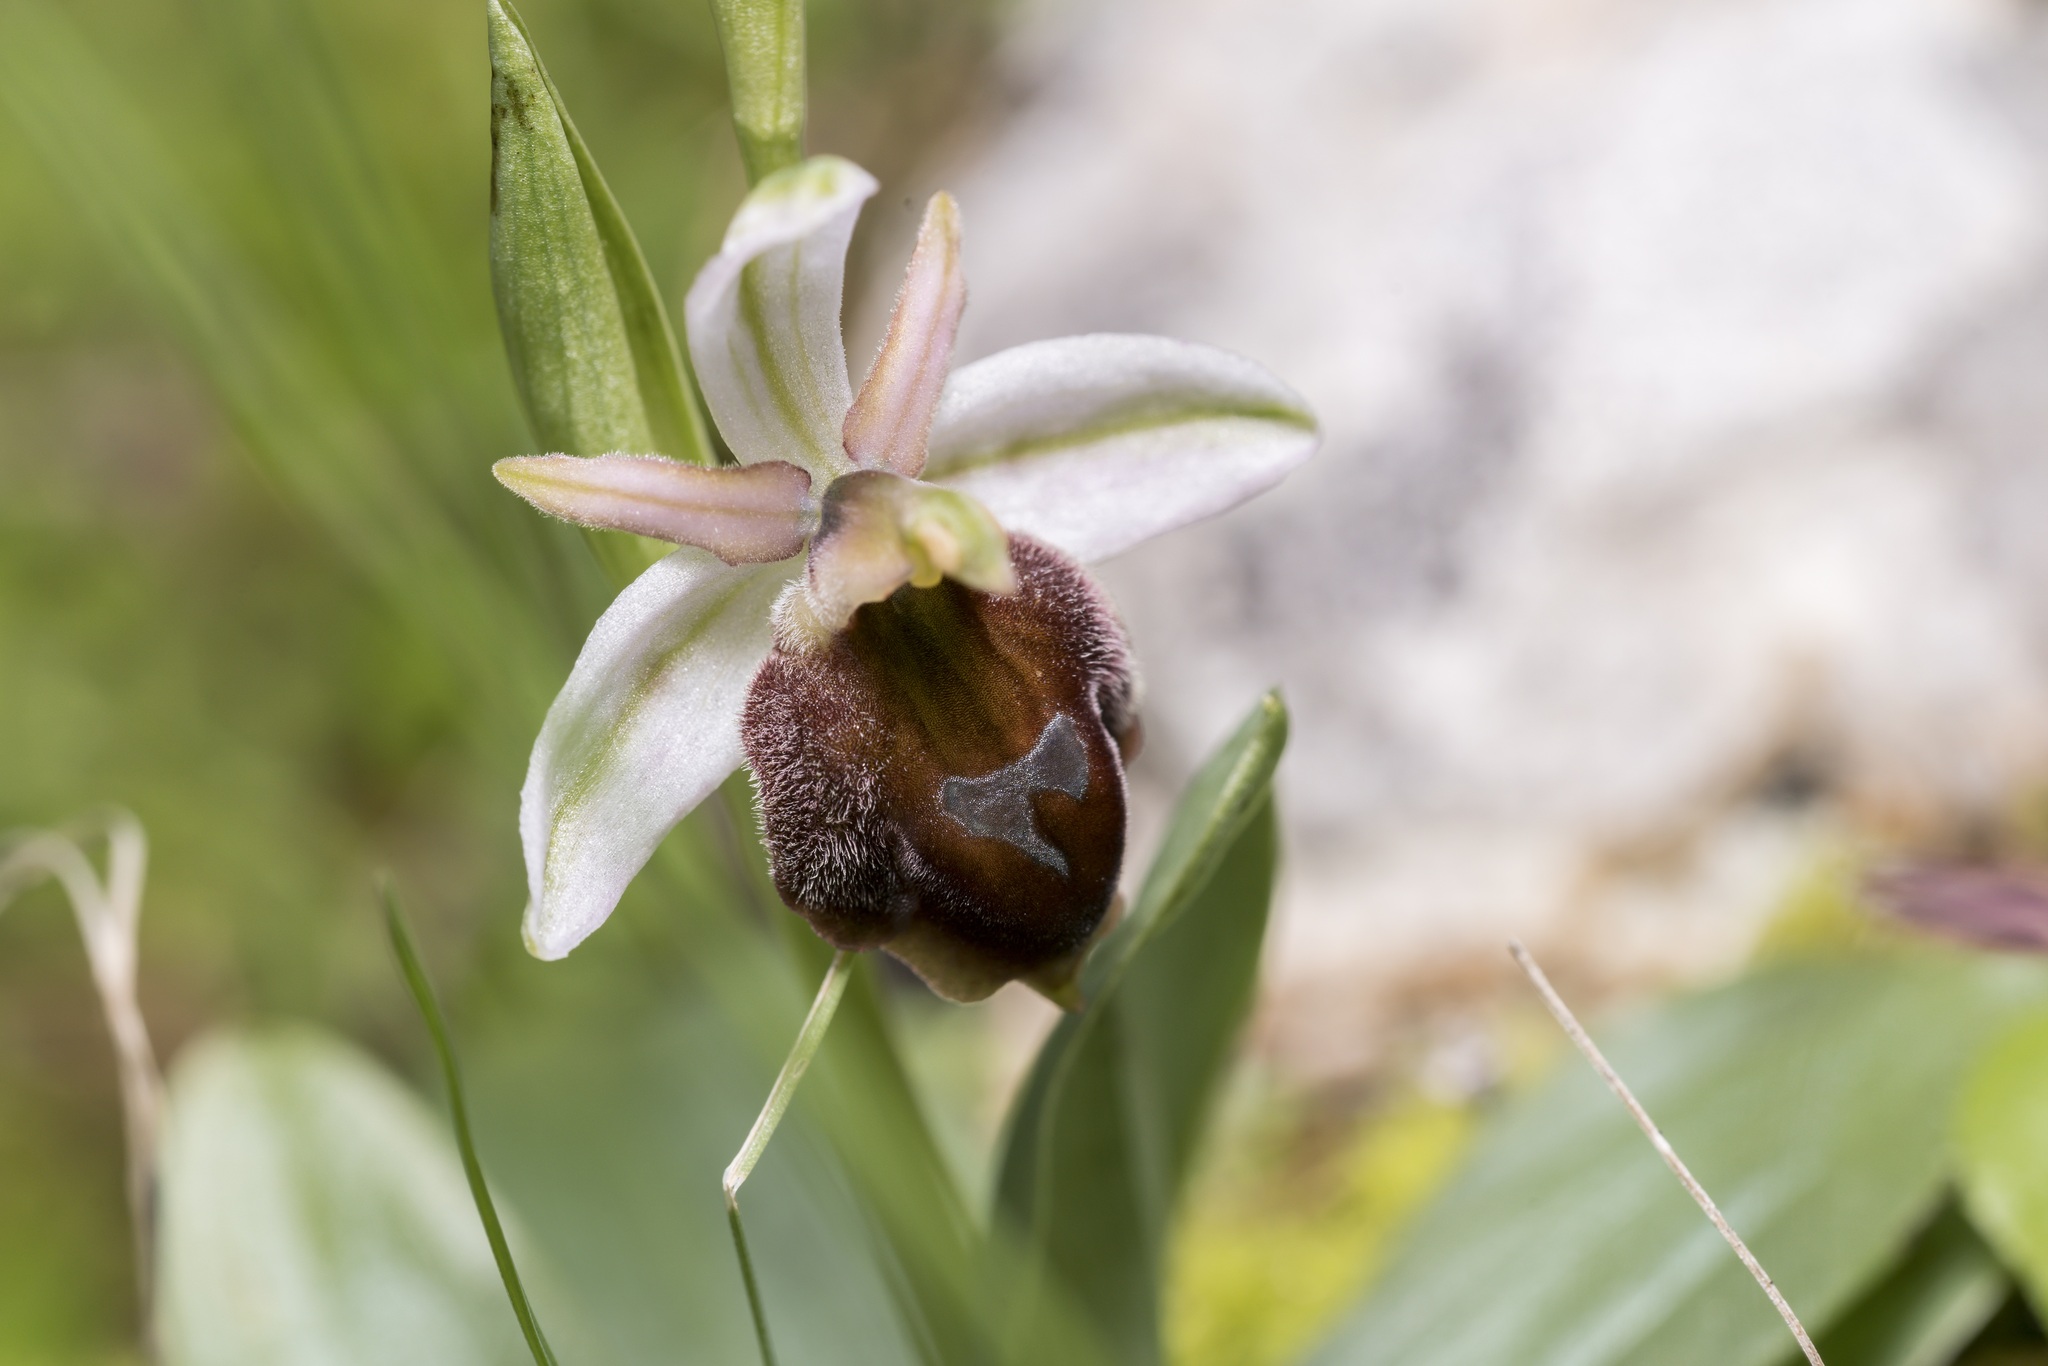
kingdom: Plantae
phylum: Tracheophyta
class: Liliopsida
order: Asparagales
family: Orchidaceae
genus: Ophrys
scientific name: Ophrys argolica
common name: Argolic ophrys
